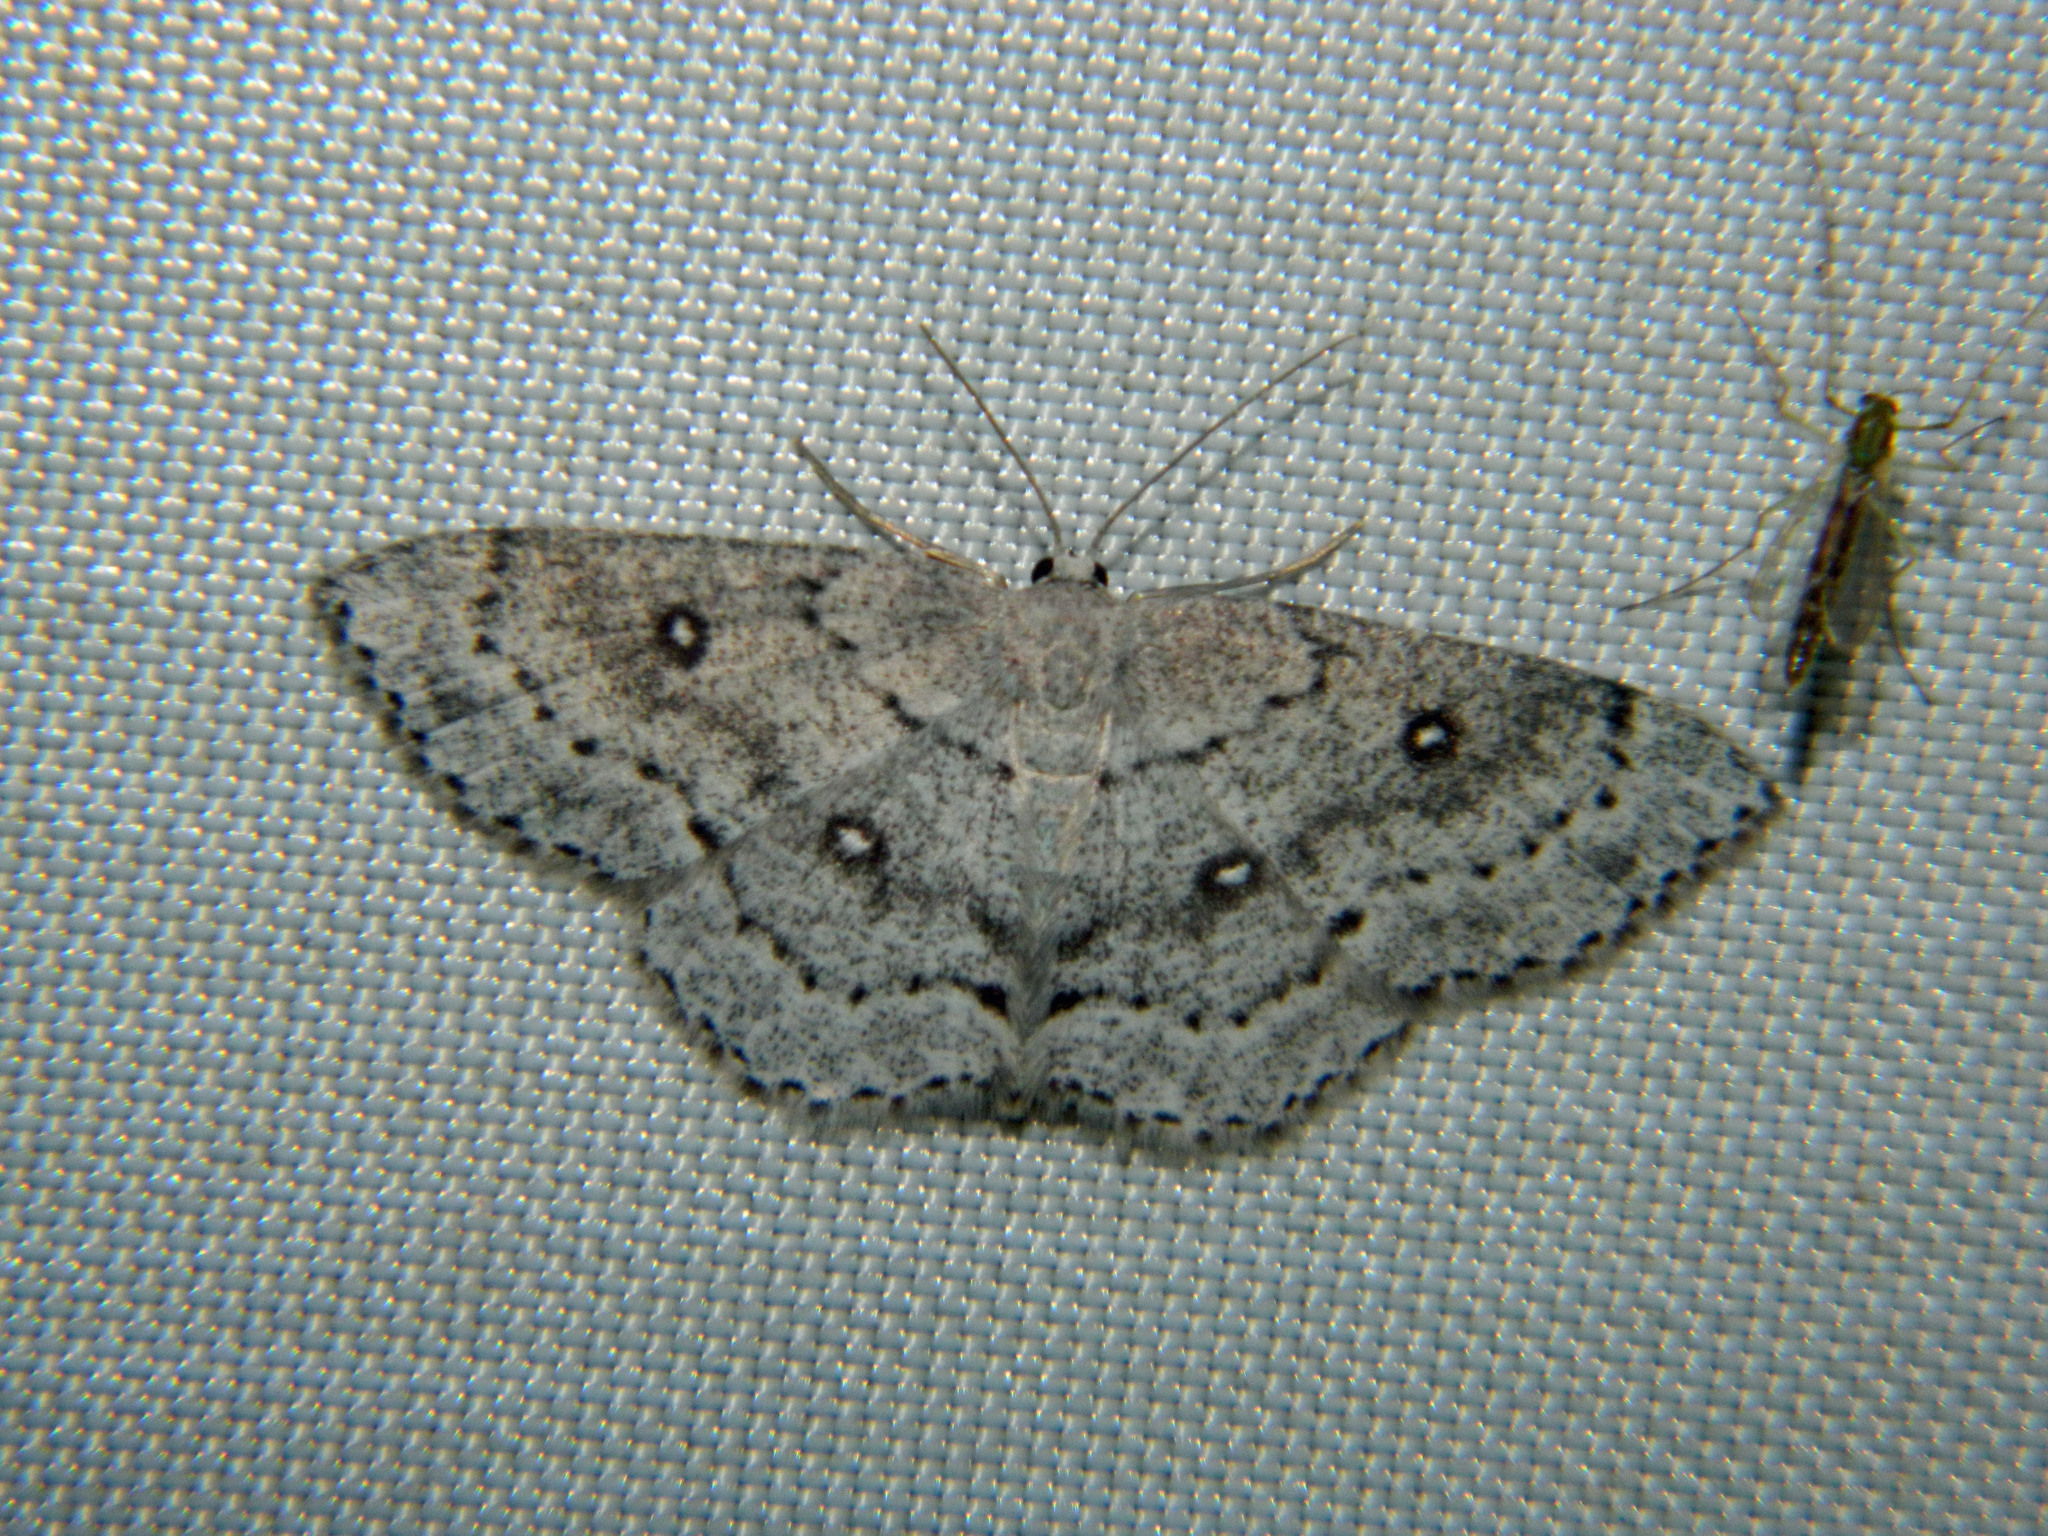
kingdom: Animalia
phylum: Arthropoda
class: Insecta
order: Lepidoptera
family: Geometridae
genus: Cyclophora
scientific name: Cyclophora pendulinaria
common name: Sweet fern geometer
